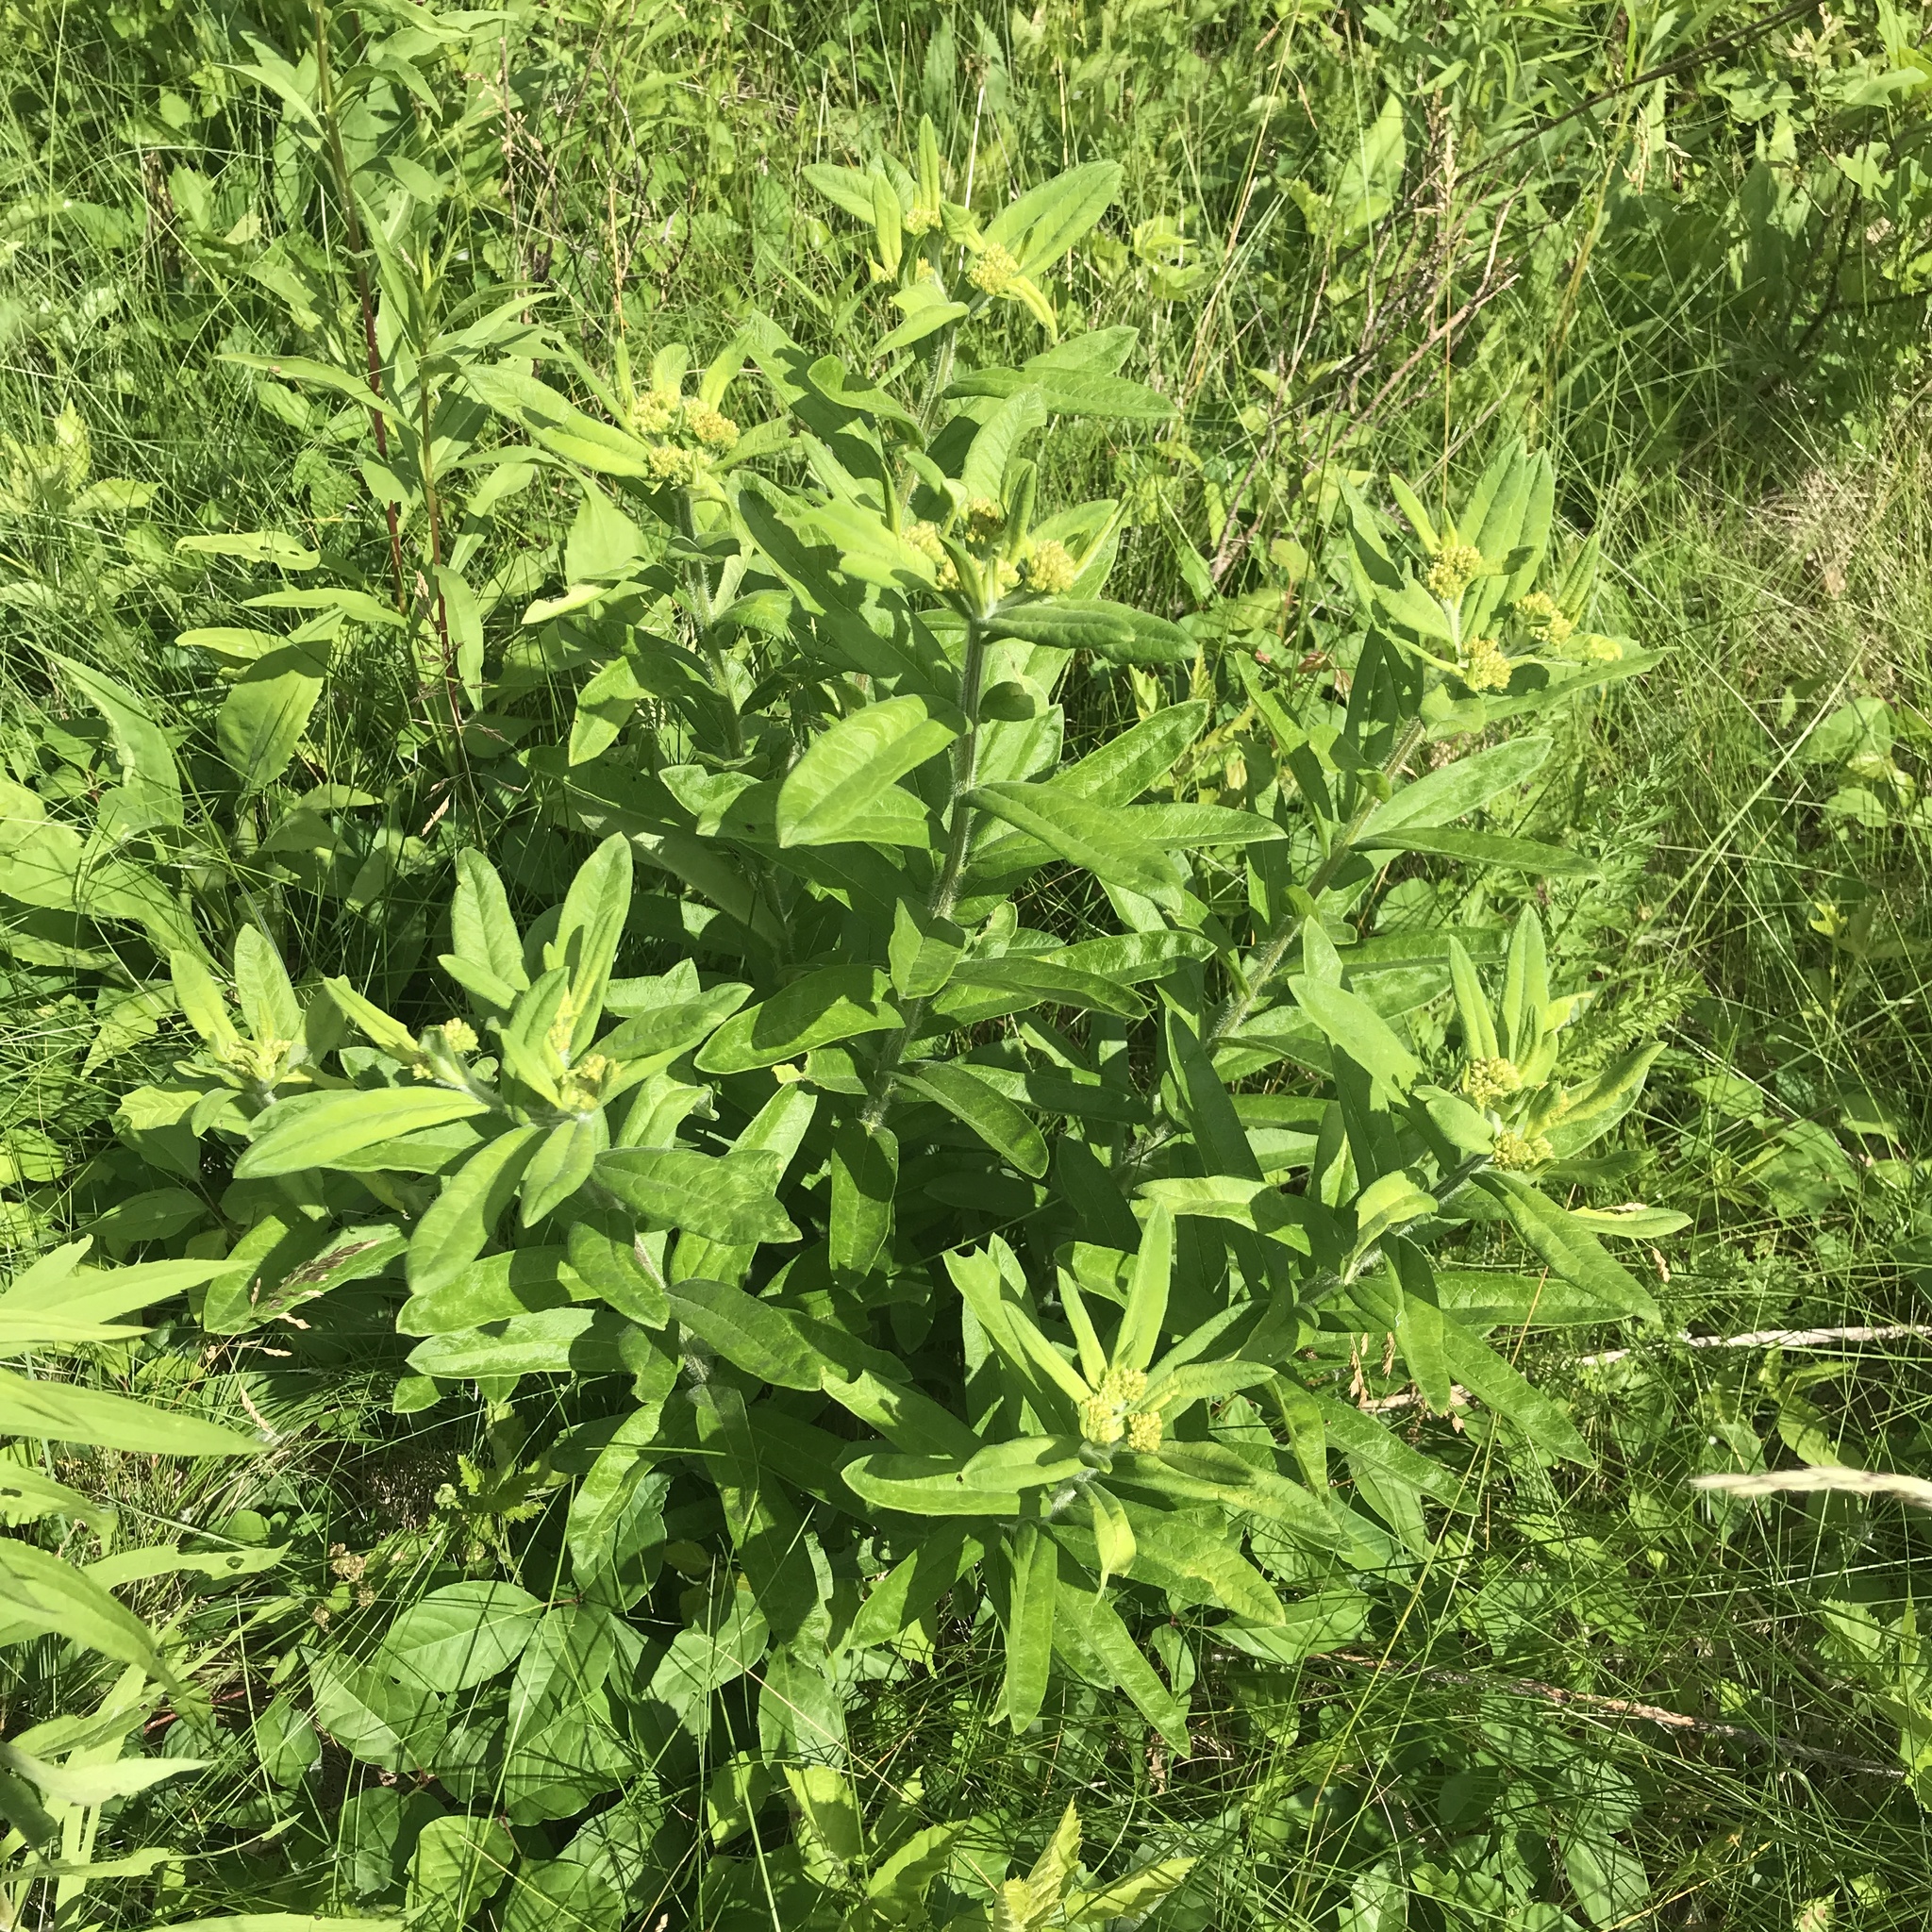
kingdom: Plantae
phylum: Tracheophyta
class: Magnoliopsida
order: Gentianales
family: Apocynaceae
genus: Asclepias
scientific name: Asclepias tuberosa
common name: Butterfly milkweed
